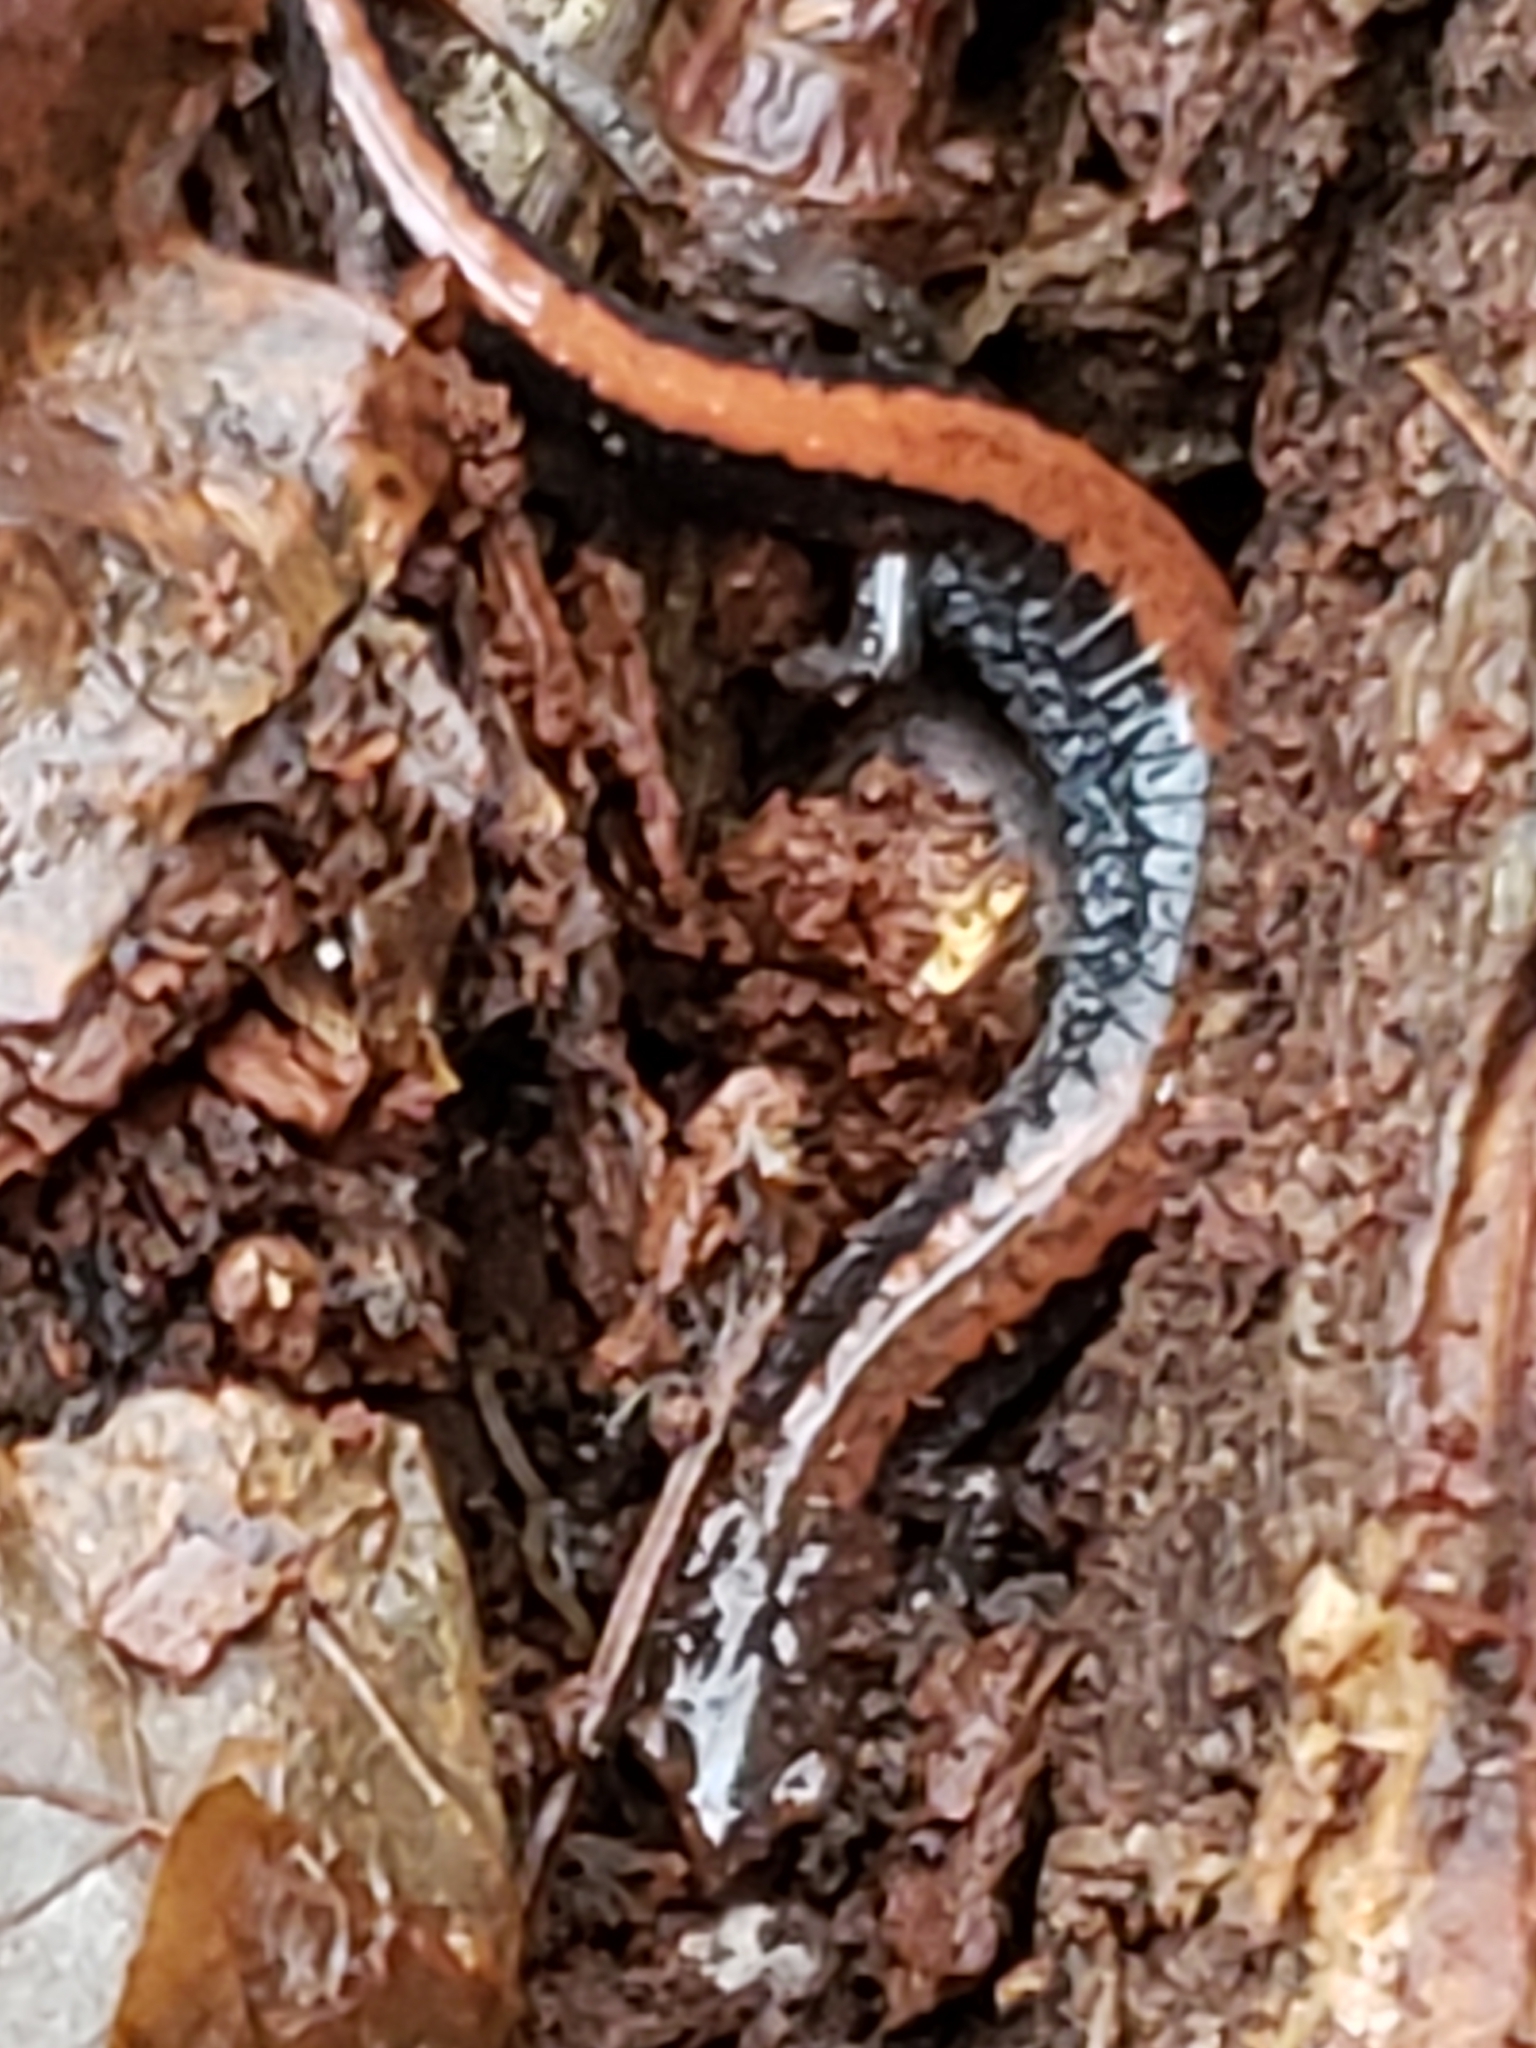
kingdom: Animalia
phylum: Chordata
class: Amphibia
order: Caudata
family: Plethodontidae
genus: Plethodon
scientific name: Plethodon cinereus
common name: Redback salamander
